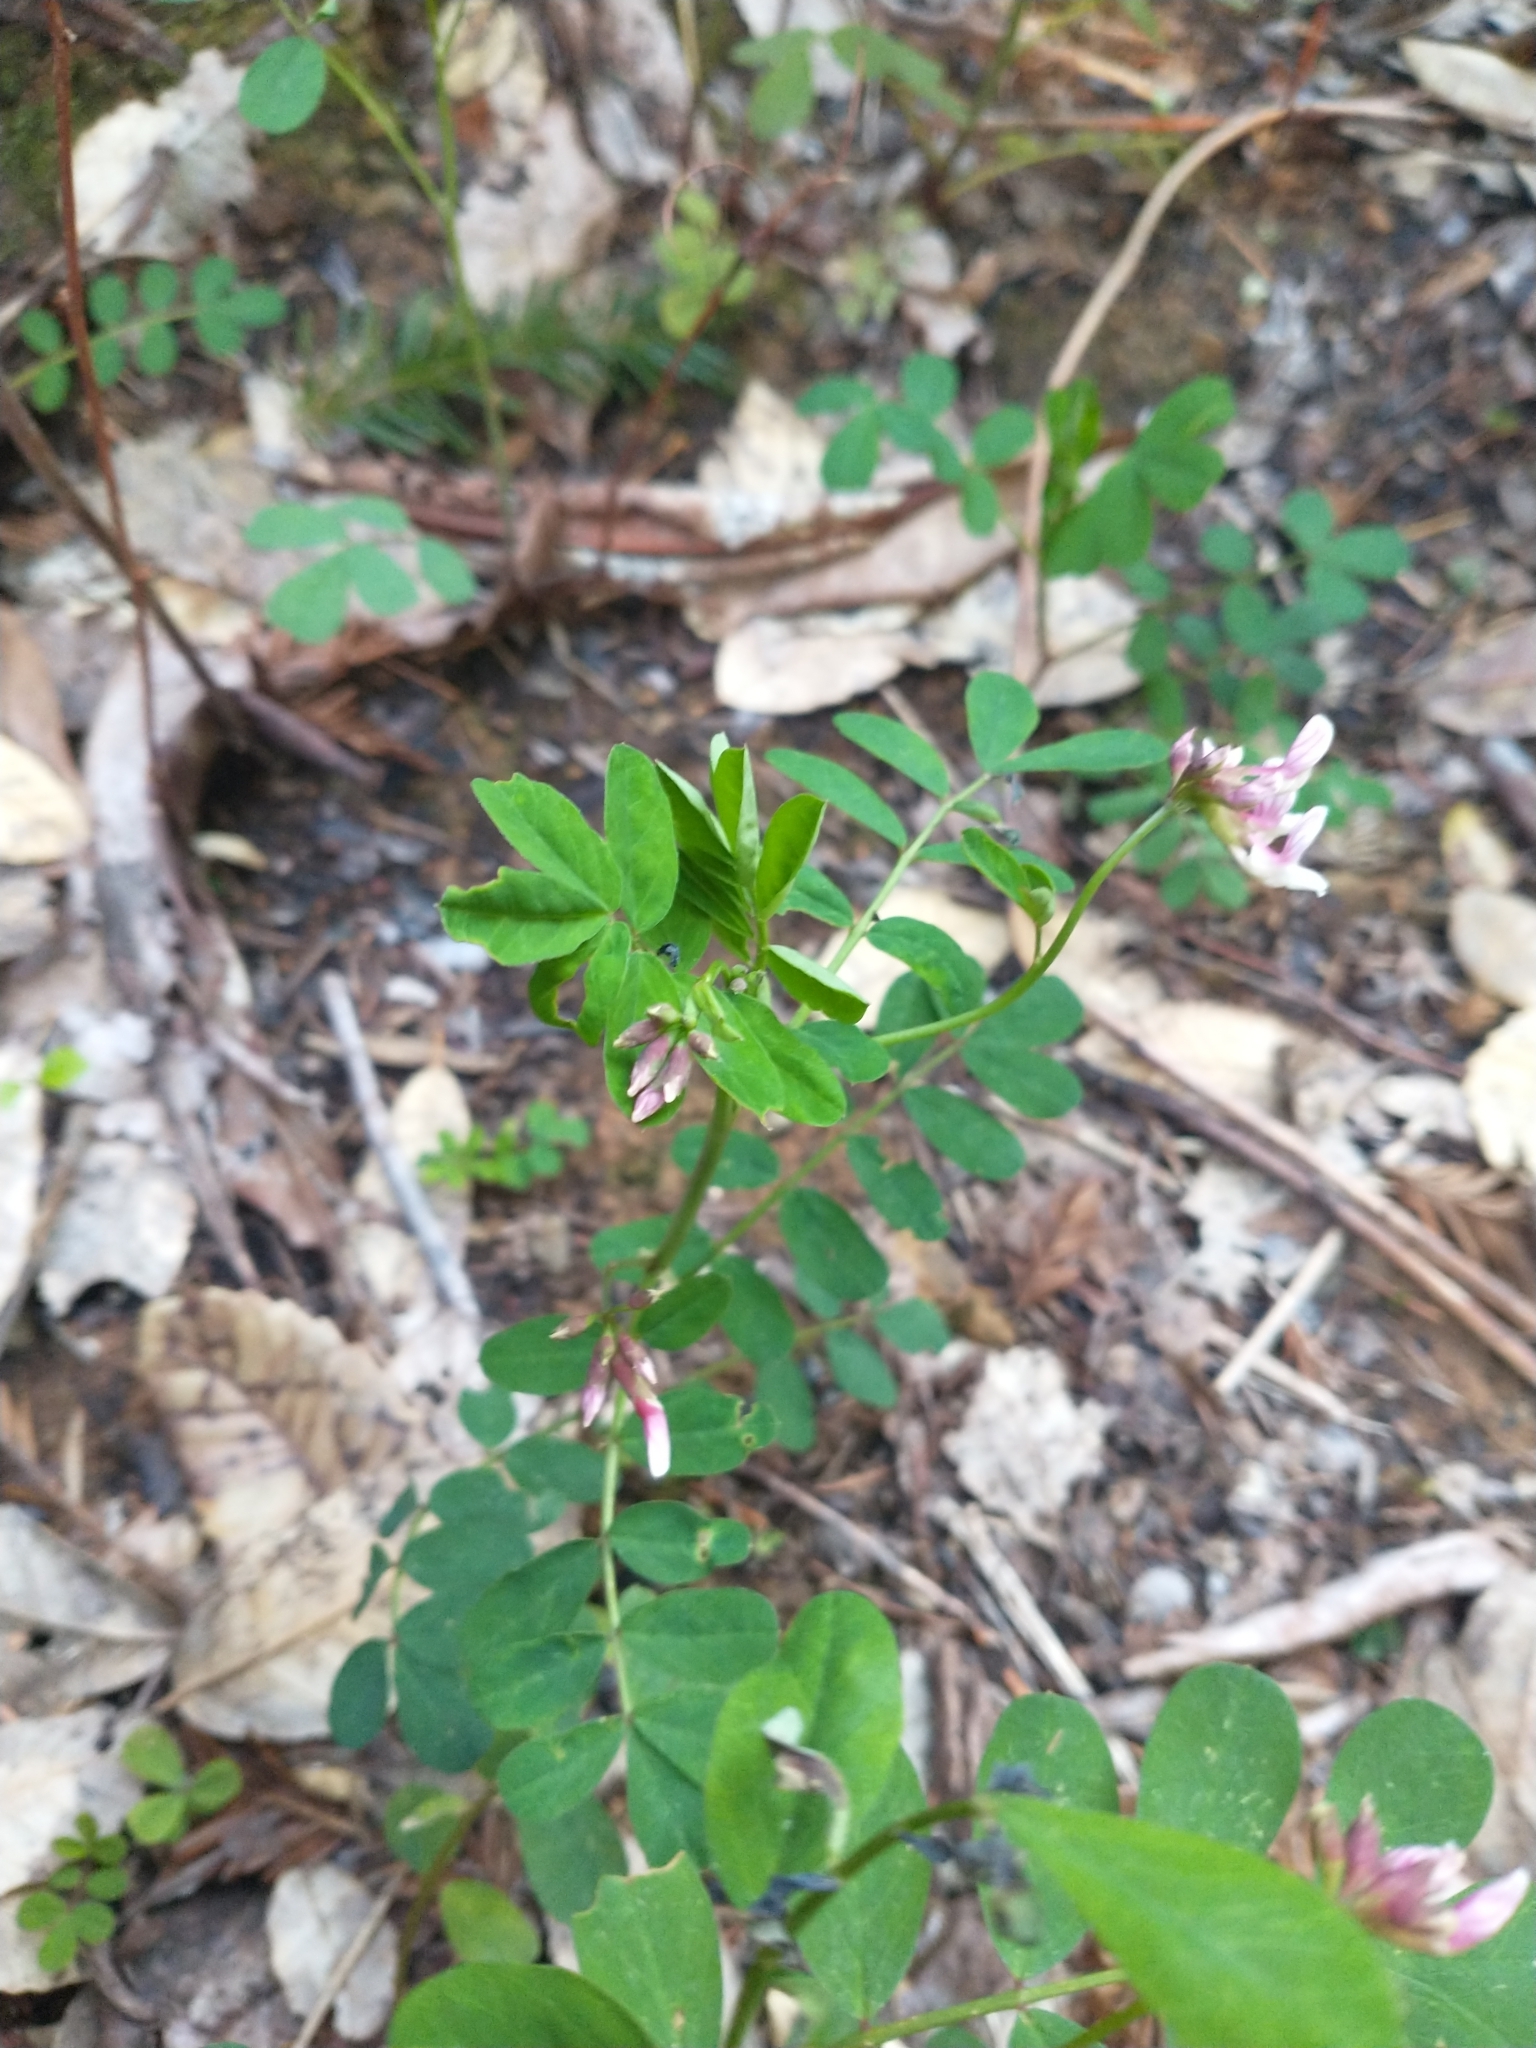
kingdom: Plantae
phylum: Tracheophyta
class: Magnoliopsida
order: Fabales
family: Fabaceae
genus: Hosackia
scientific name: Hosackia rosea
